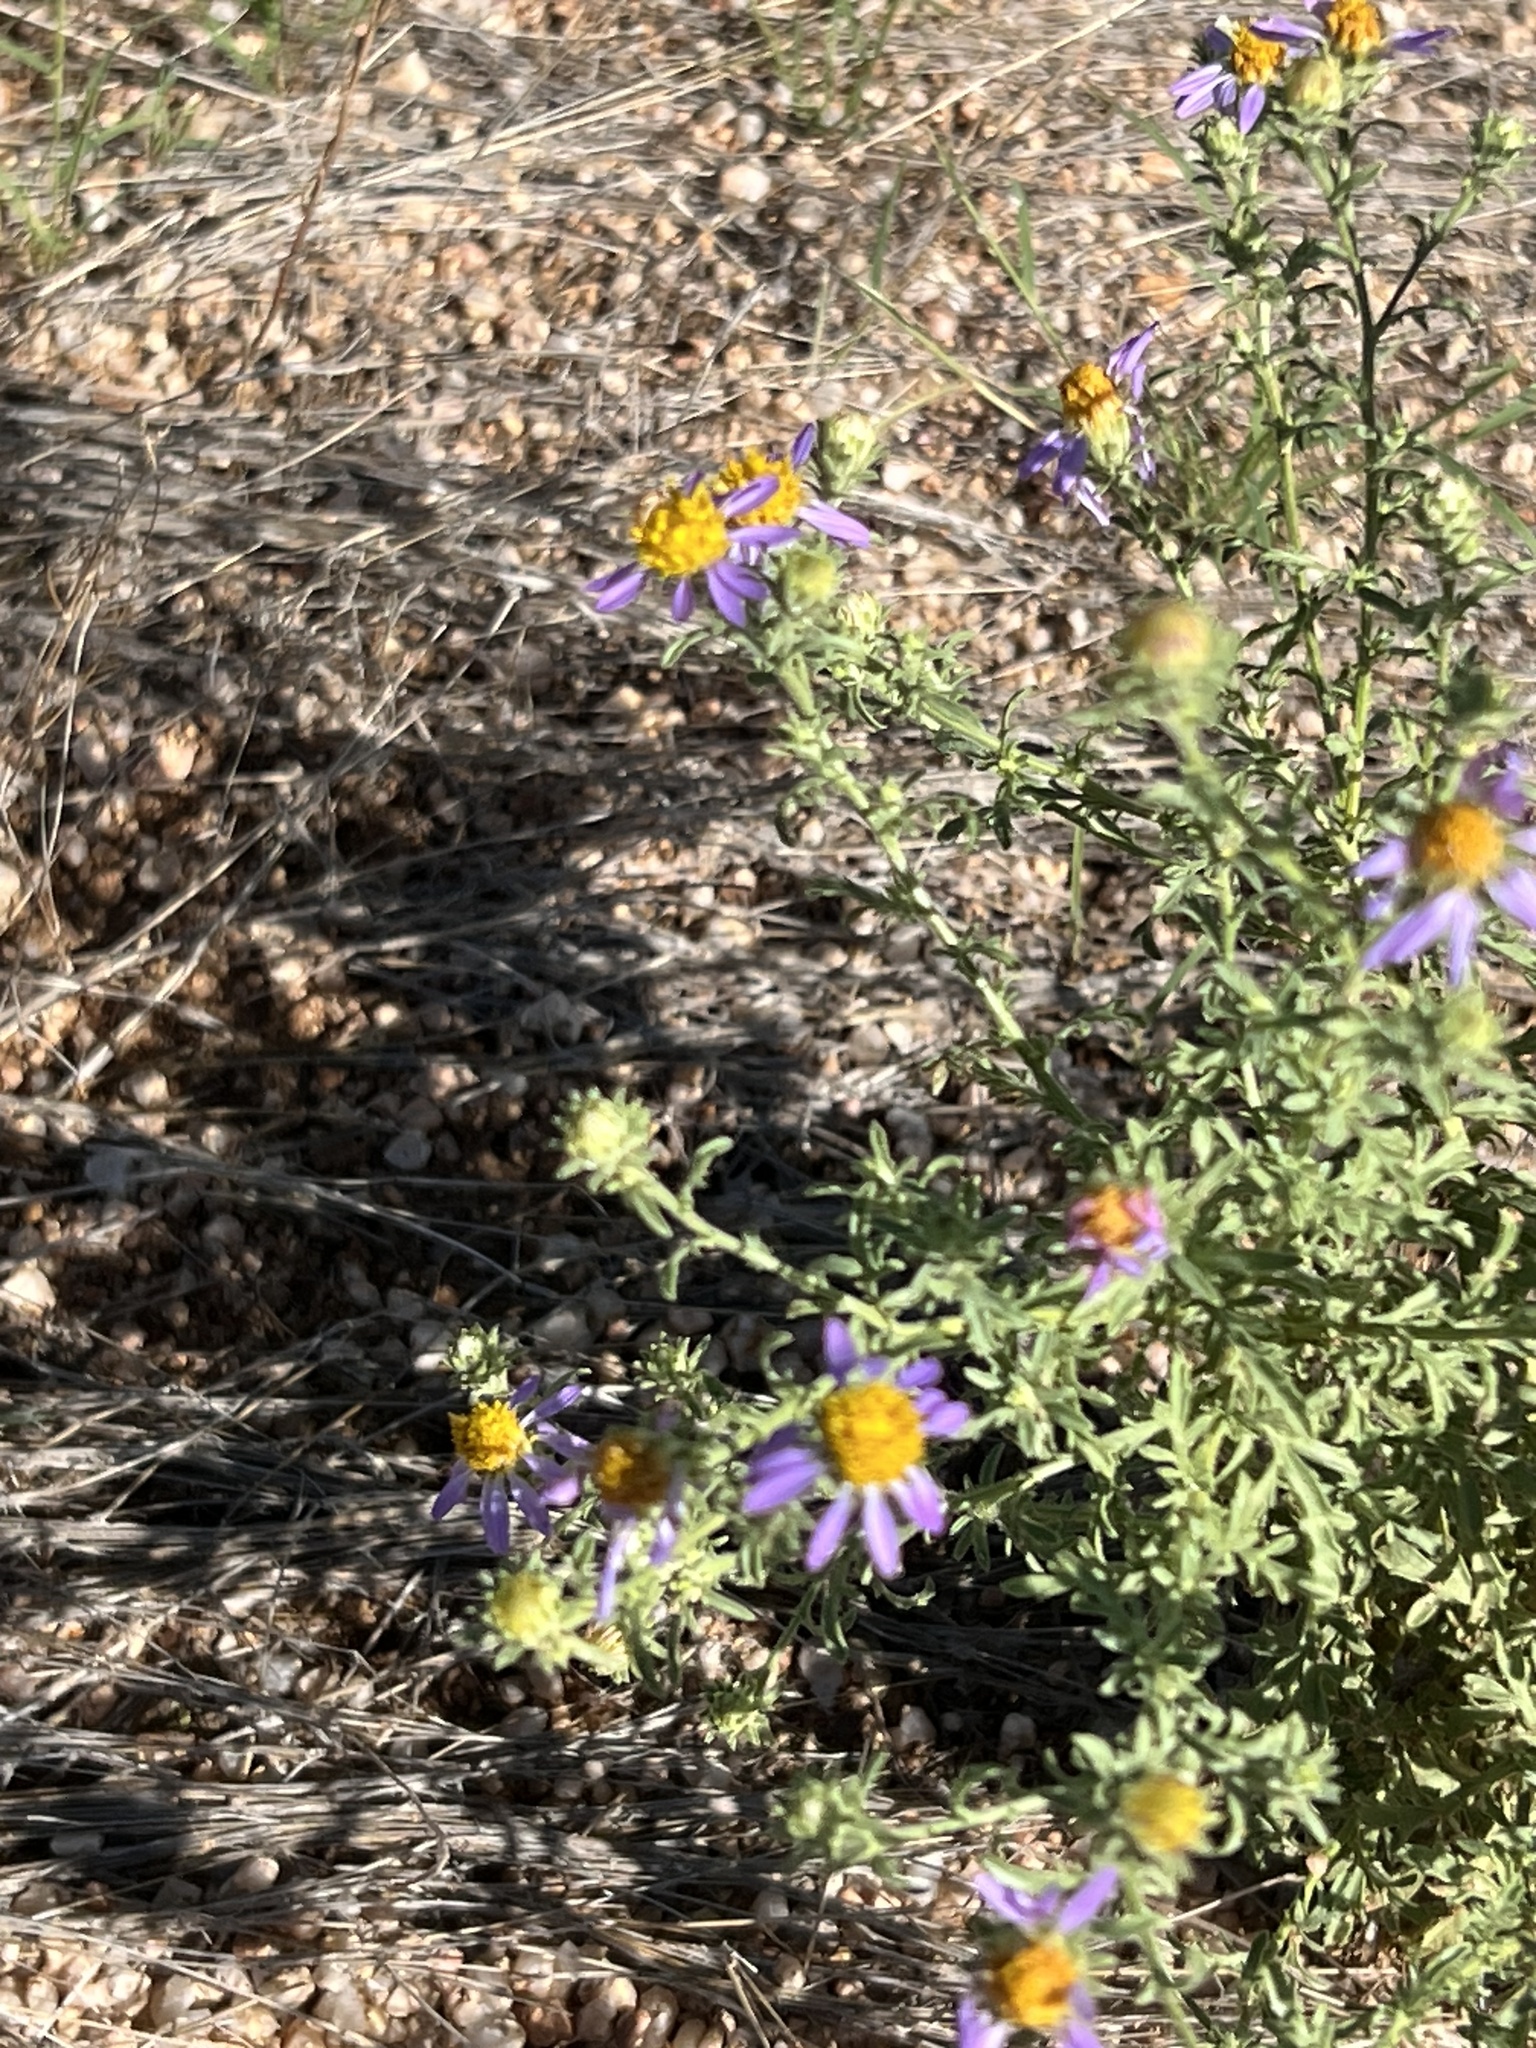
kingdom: Plantae
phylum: Tracheophyta
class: Magnoliopsida
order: Asterales
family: Asteraceae
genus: Machaeranthera
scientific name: Machaeranthera tagetina
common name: Mesa tansy-aster
